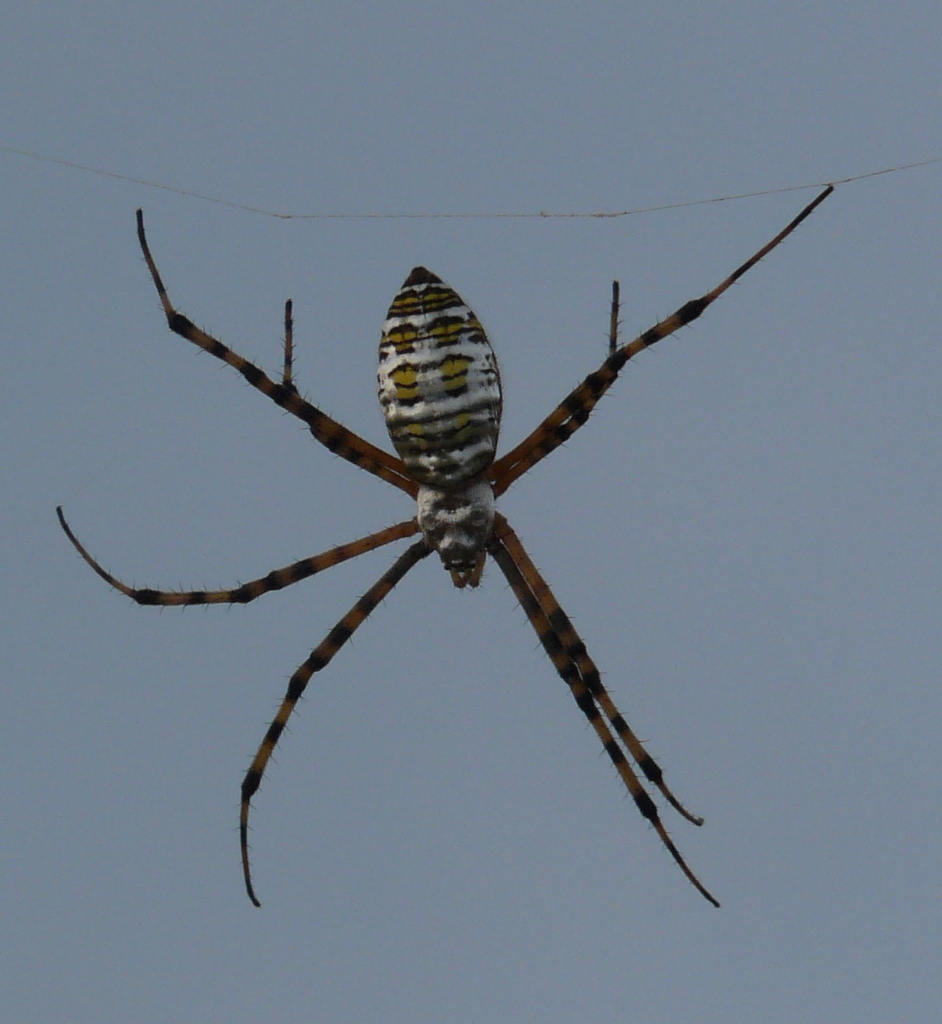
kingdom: Animalia
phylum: Arthropoda
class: Arachnida
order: Araneae
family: Araneidae
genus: Argiope
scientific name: Argiope trifasciata
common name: Banded garden spider
